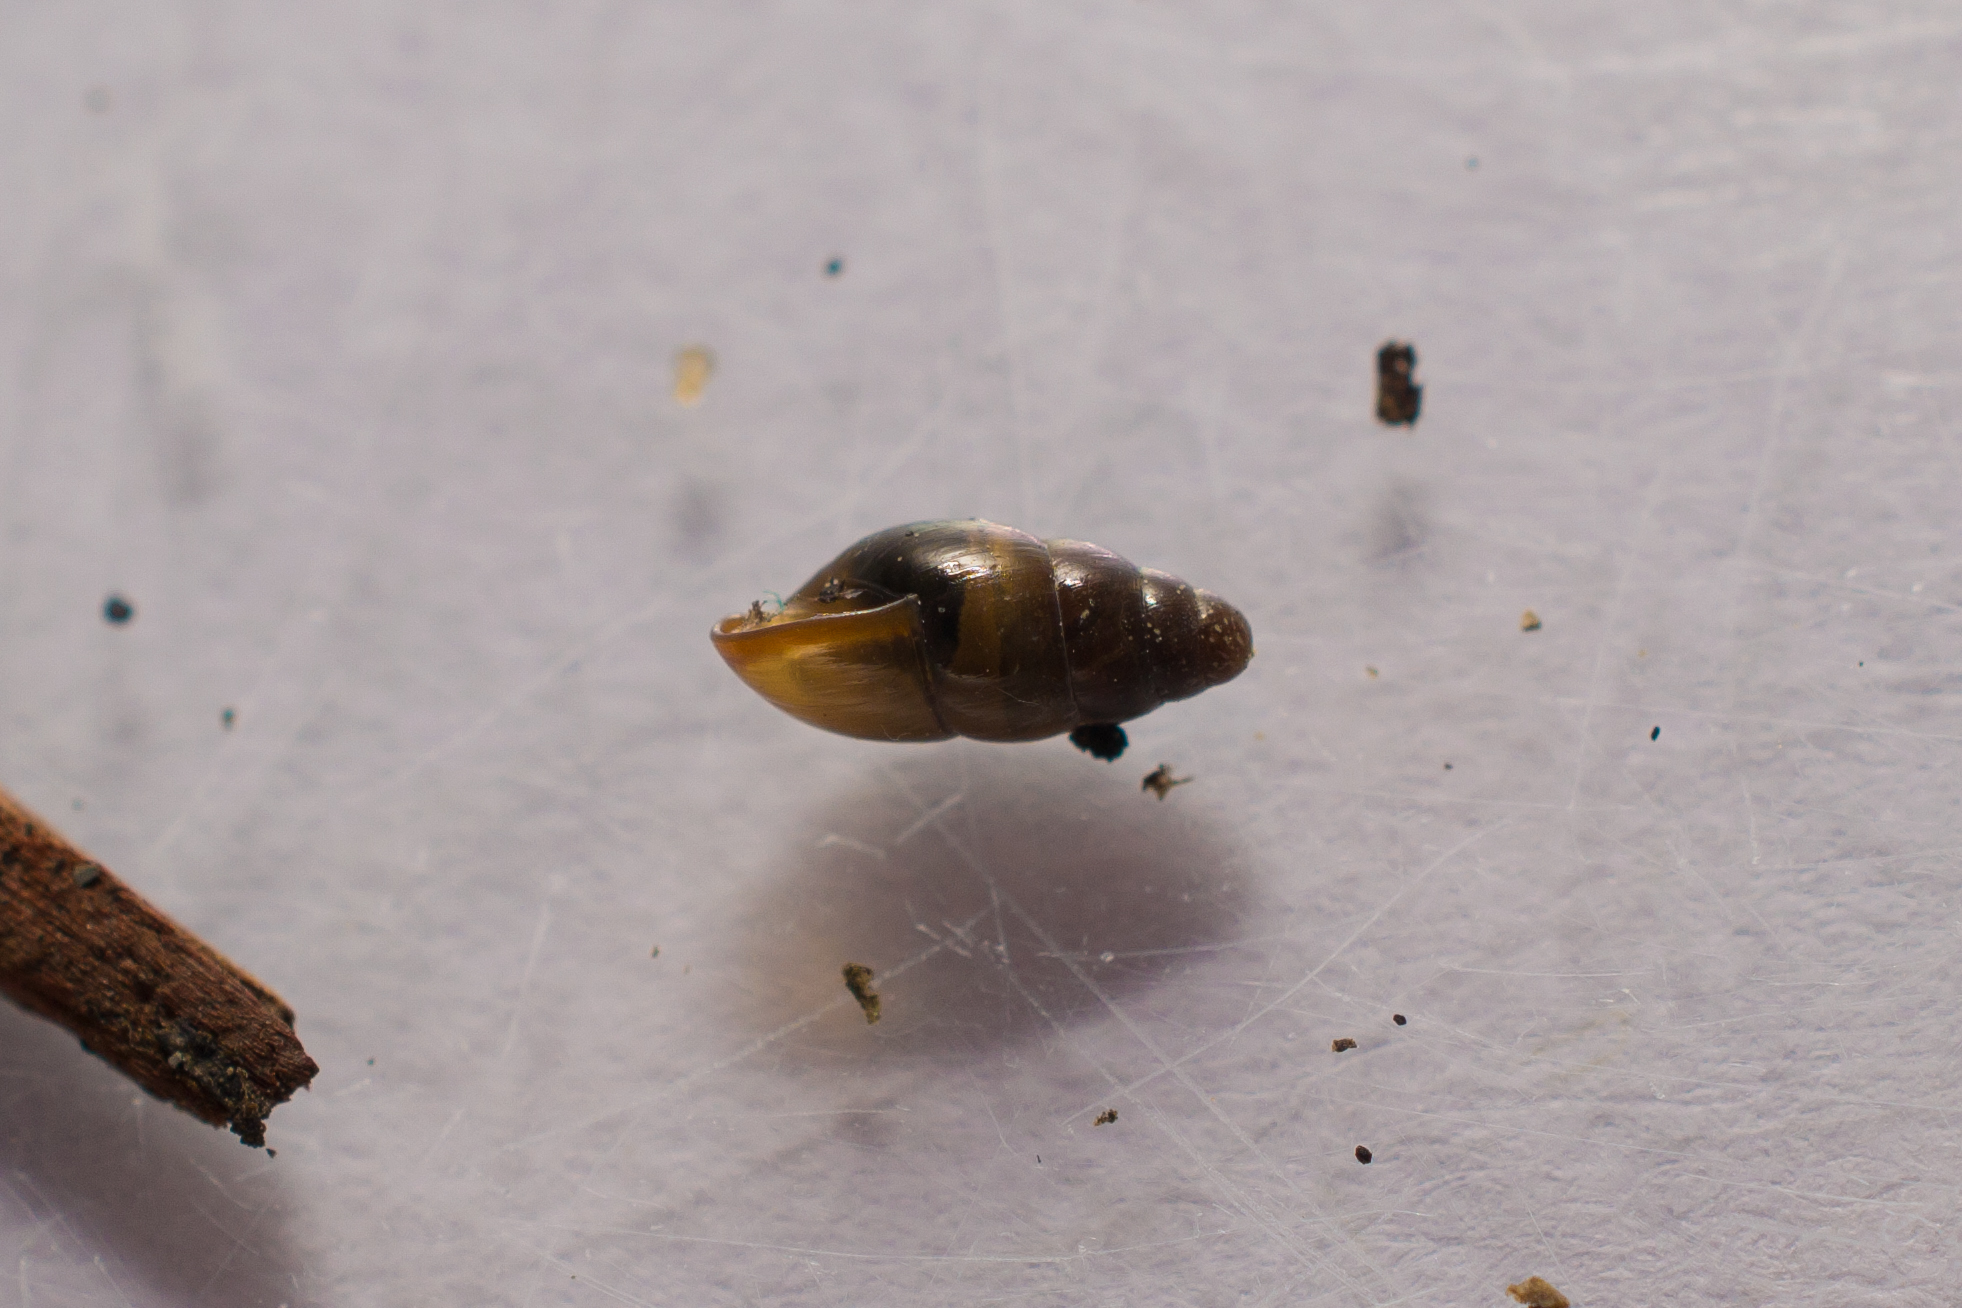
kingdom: Animalia
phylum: Mollusca
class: Gastropoda
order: Stylommatophora
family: Cochlicopidae
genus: Cochlicopa
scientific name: Cochlicopa lubrica
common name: Glossy pillar snail
